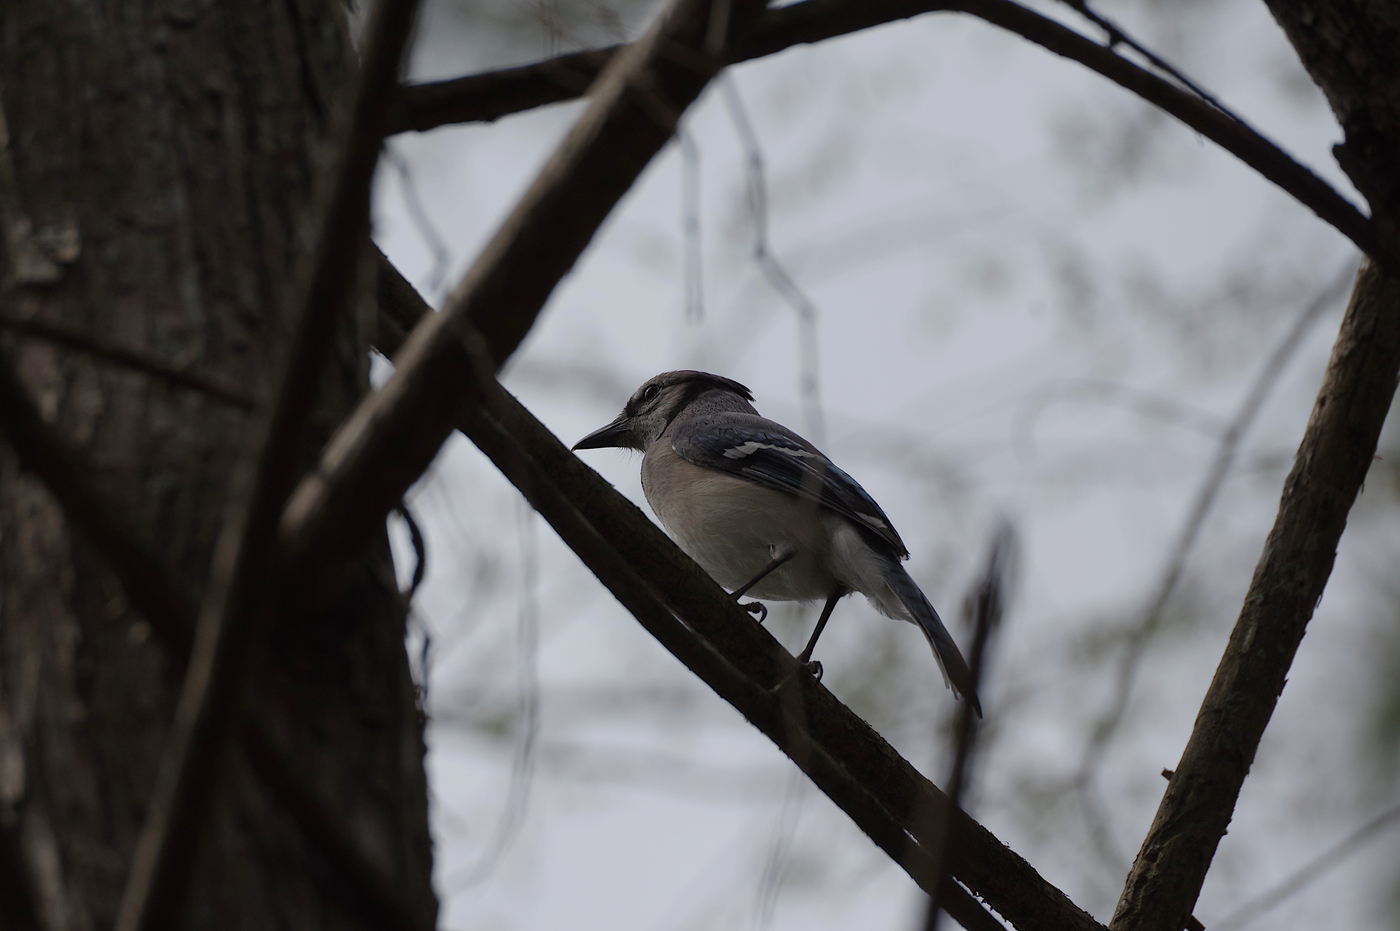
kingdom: Animalia
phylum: Chordata
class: Aves
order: Passeriformes
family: Corvidae
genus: Cyanocitta
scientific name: Cyanocitta cristata
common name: Blue jay
